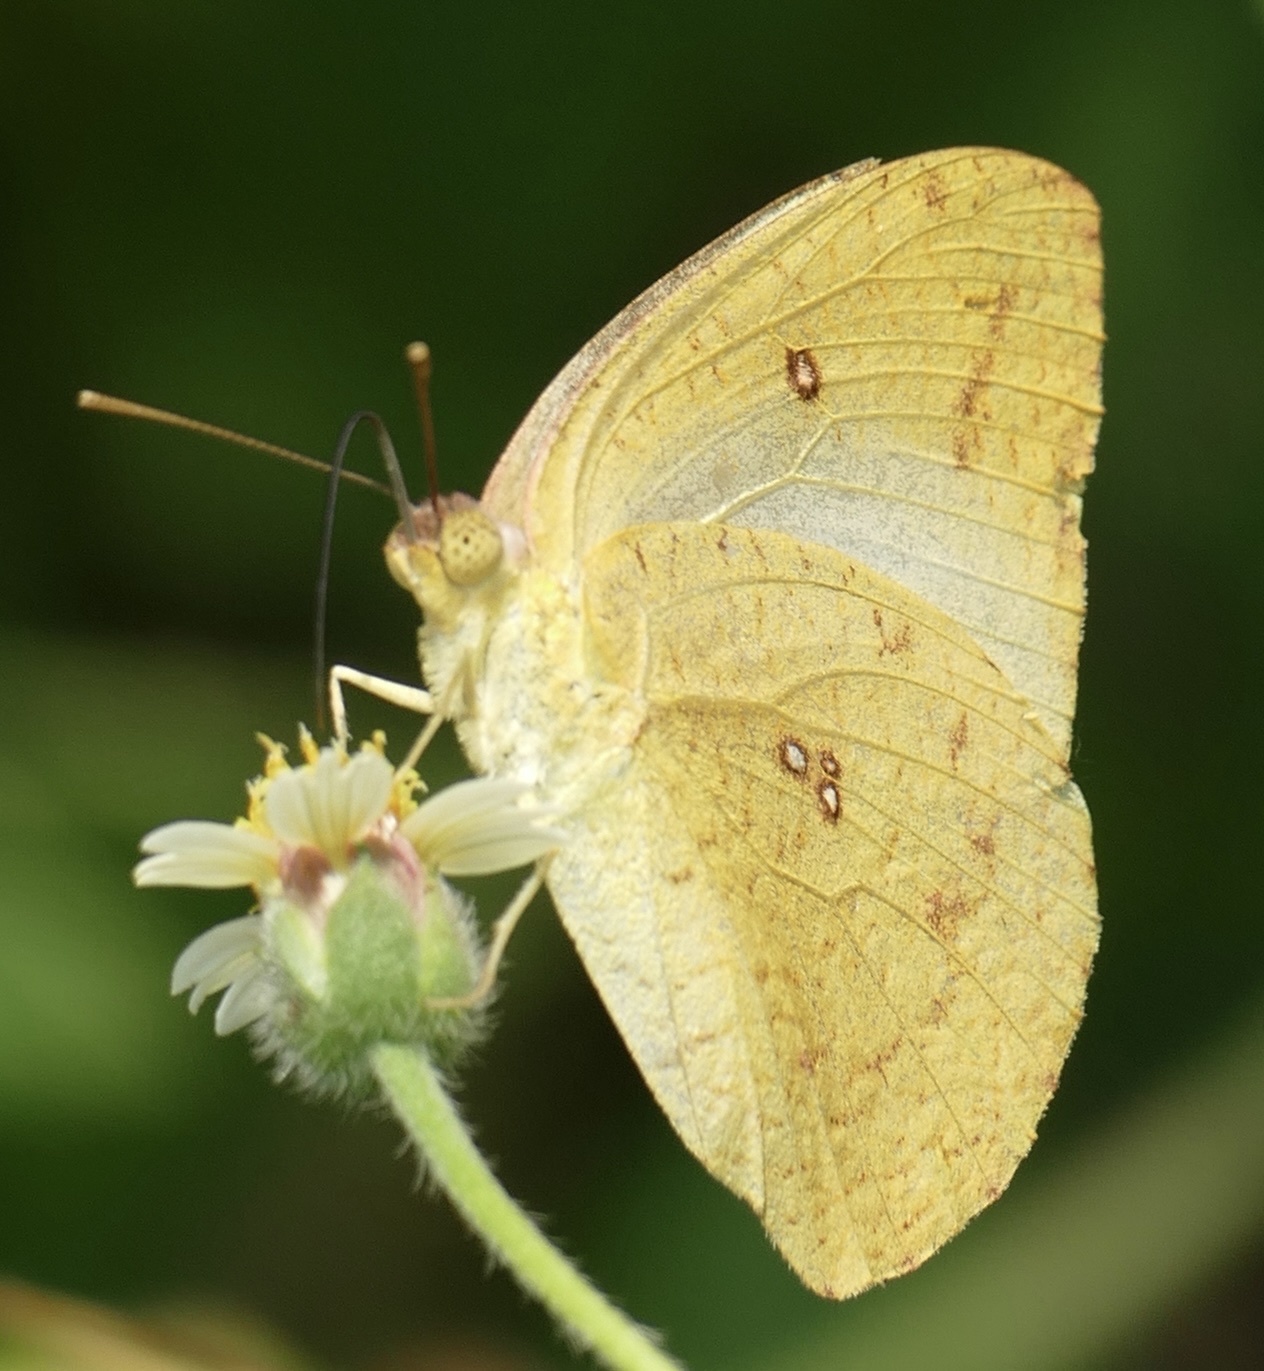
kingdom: Animalia
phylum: Arthropoda
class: Insecta
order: Lepidoptera
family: Pieridae
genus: Catopsilia
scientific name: Catopsilia florella
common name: African migrant
